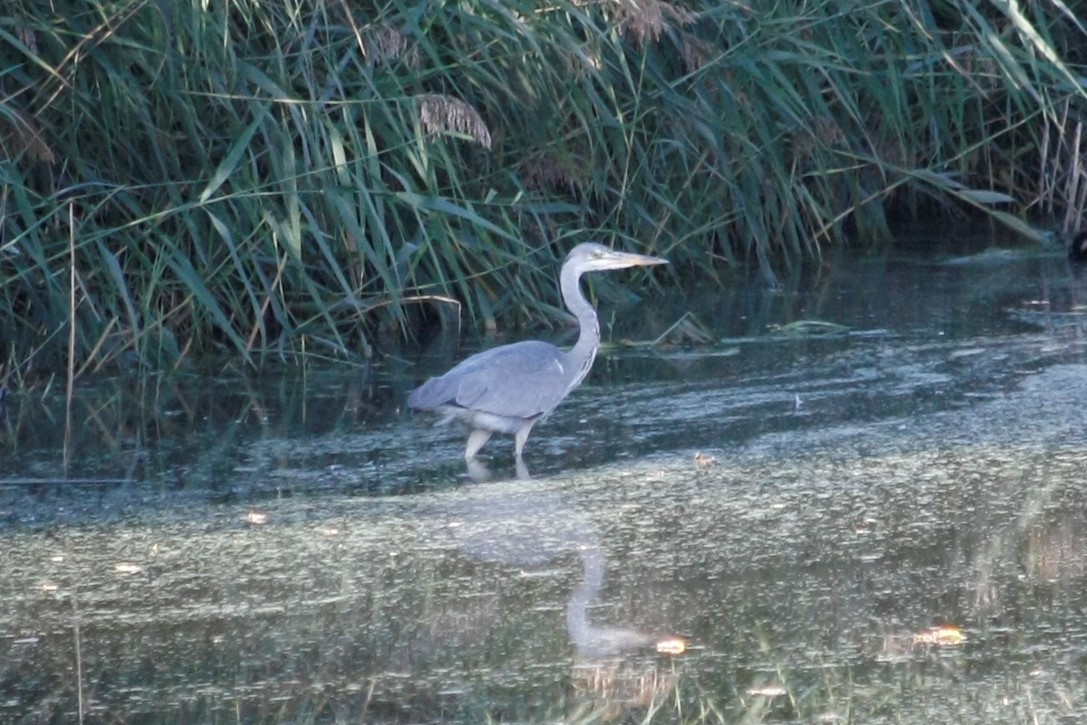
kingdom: Animalia
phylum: Chordata
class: Aves
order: Pelecaniformes
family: Ardeidae
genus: Ardea
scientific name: Ardea cinerea
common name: Grey heron
